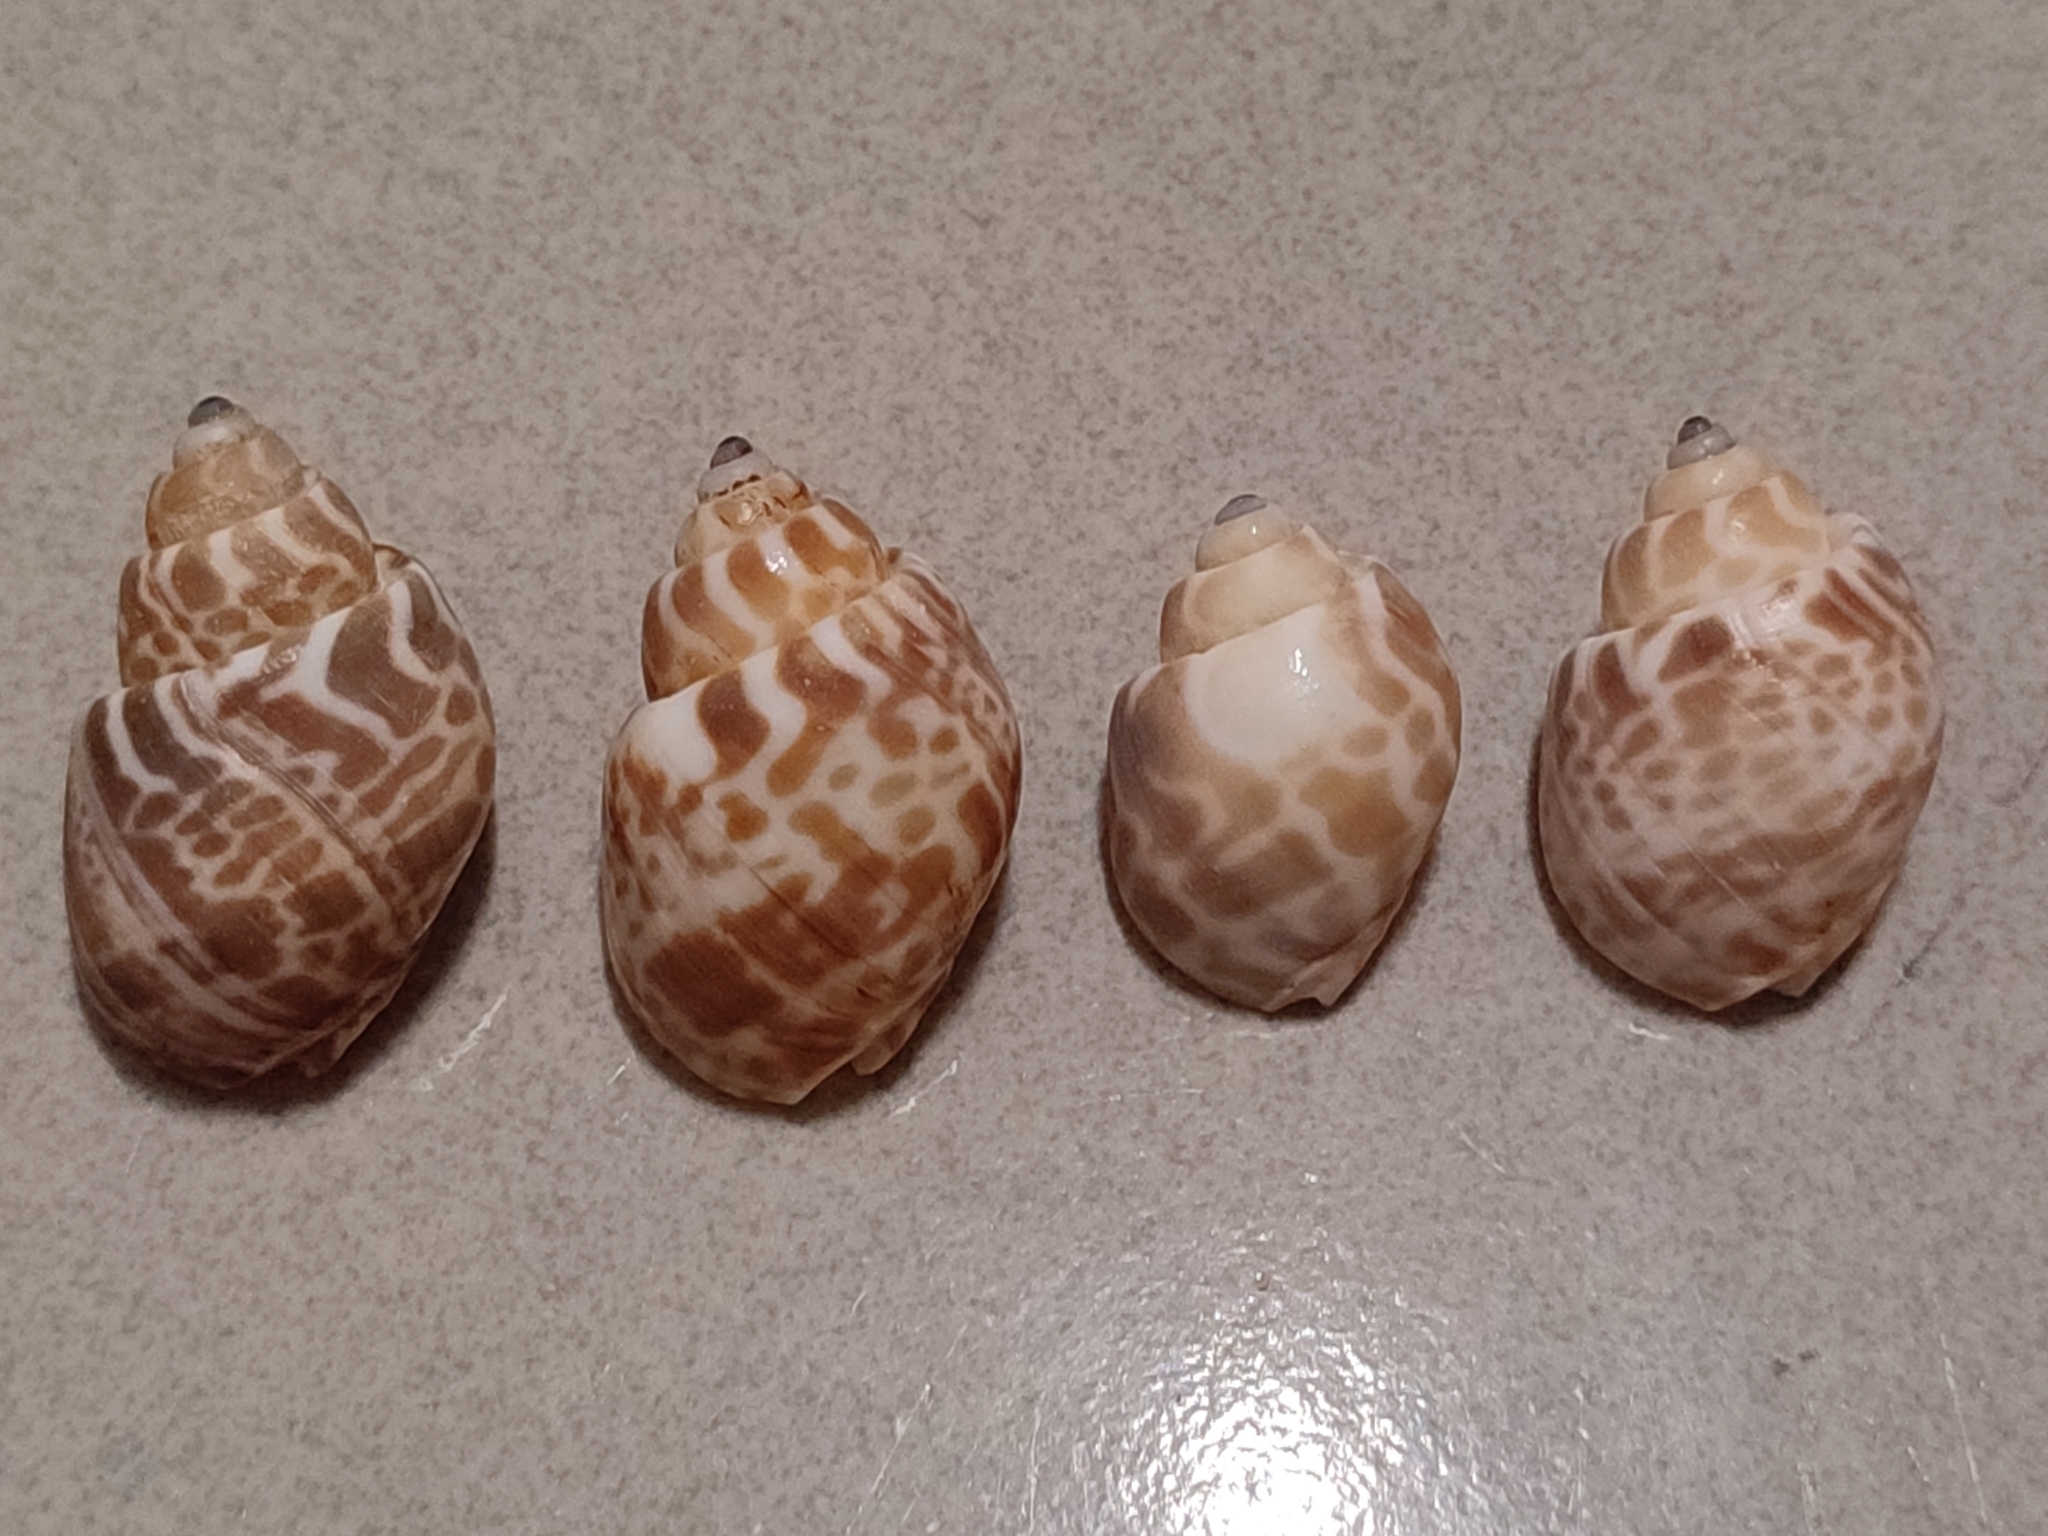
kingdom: Animalia
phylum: Mollusca
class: Gastropoda
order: Neogastropoda
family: Babyloniidae
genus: Babylonia
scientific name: Babylonia spirata
